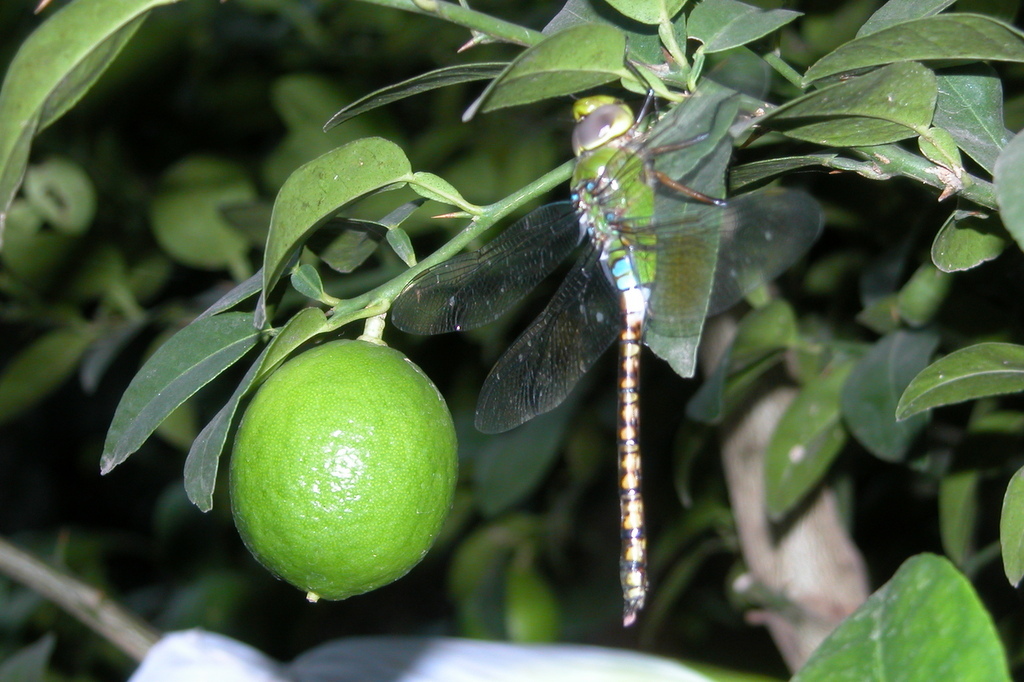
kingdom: Animalia
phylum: Arthropoda
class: Insecta
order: Odonata
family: Aeshnidae
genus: Anax
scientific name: Anax indicus
